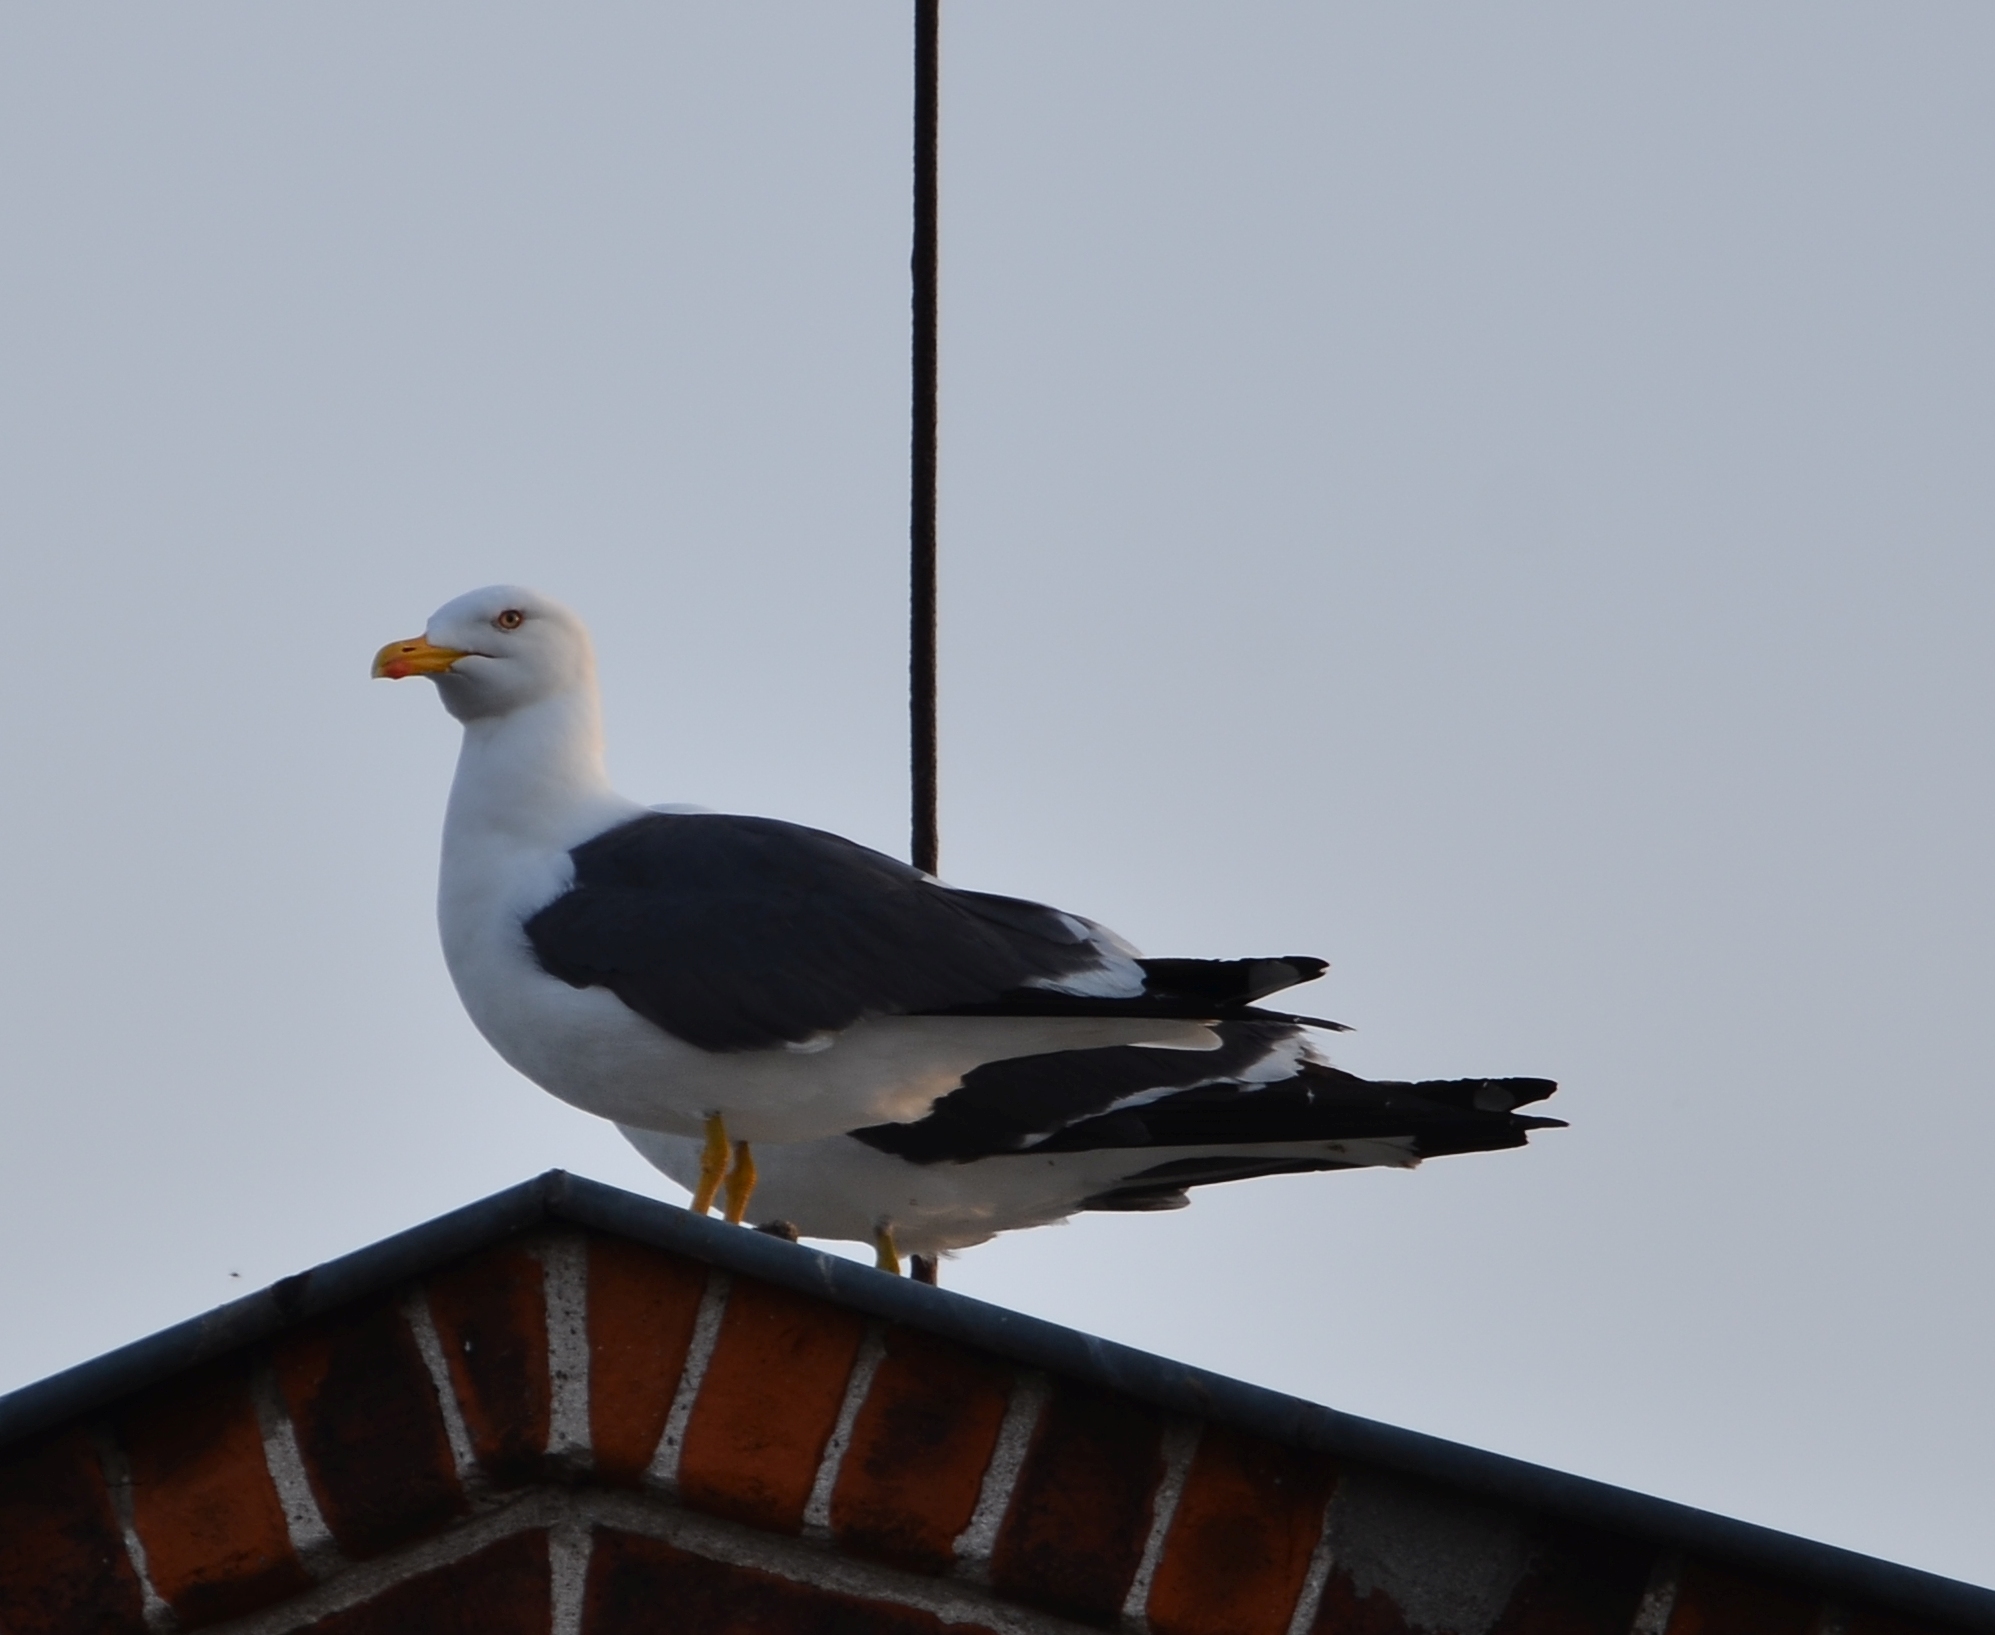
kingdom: Animalia
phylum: Chordata
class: Aves
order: Charadriiformes
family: Laridae
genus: Larus
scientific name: Larus fuscus
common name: Lesser black-backed gull
